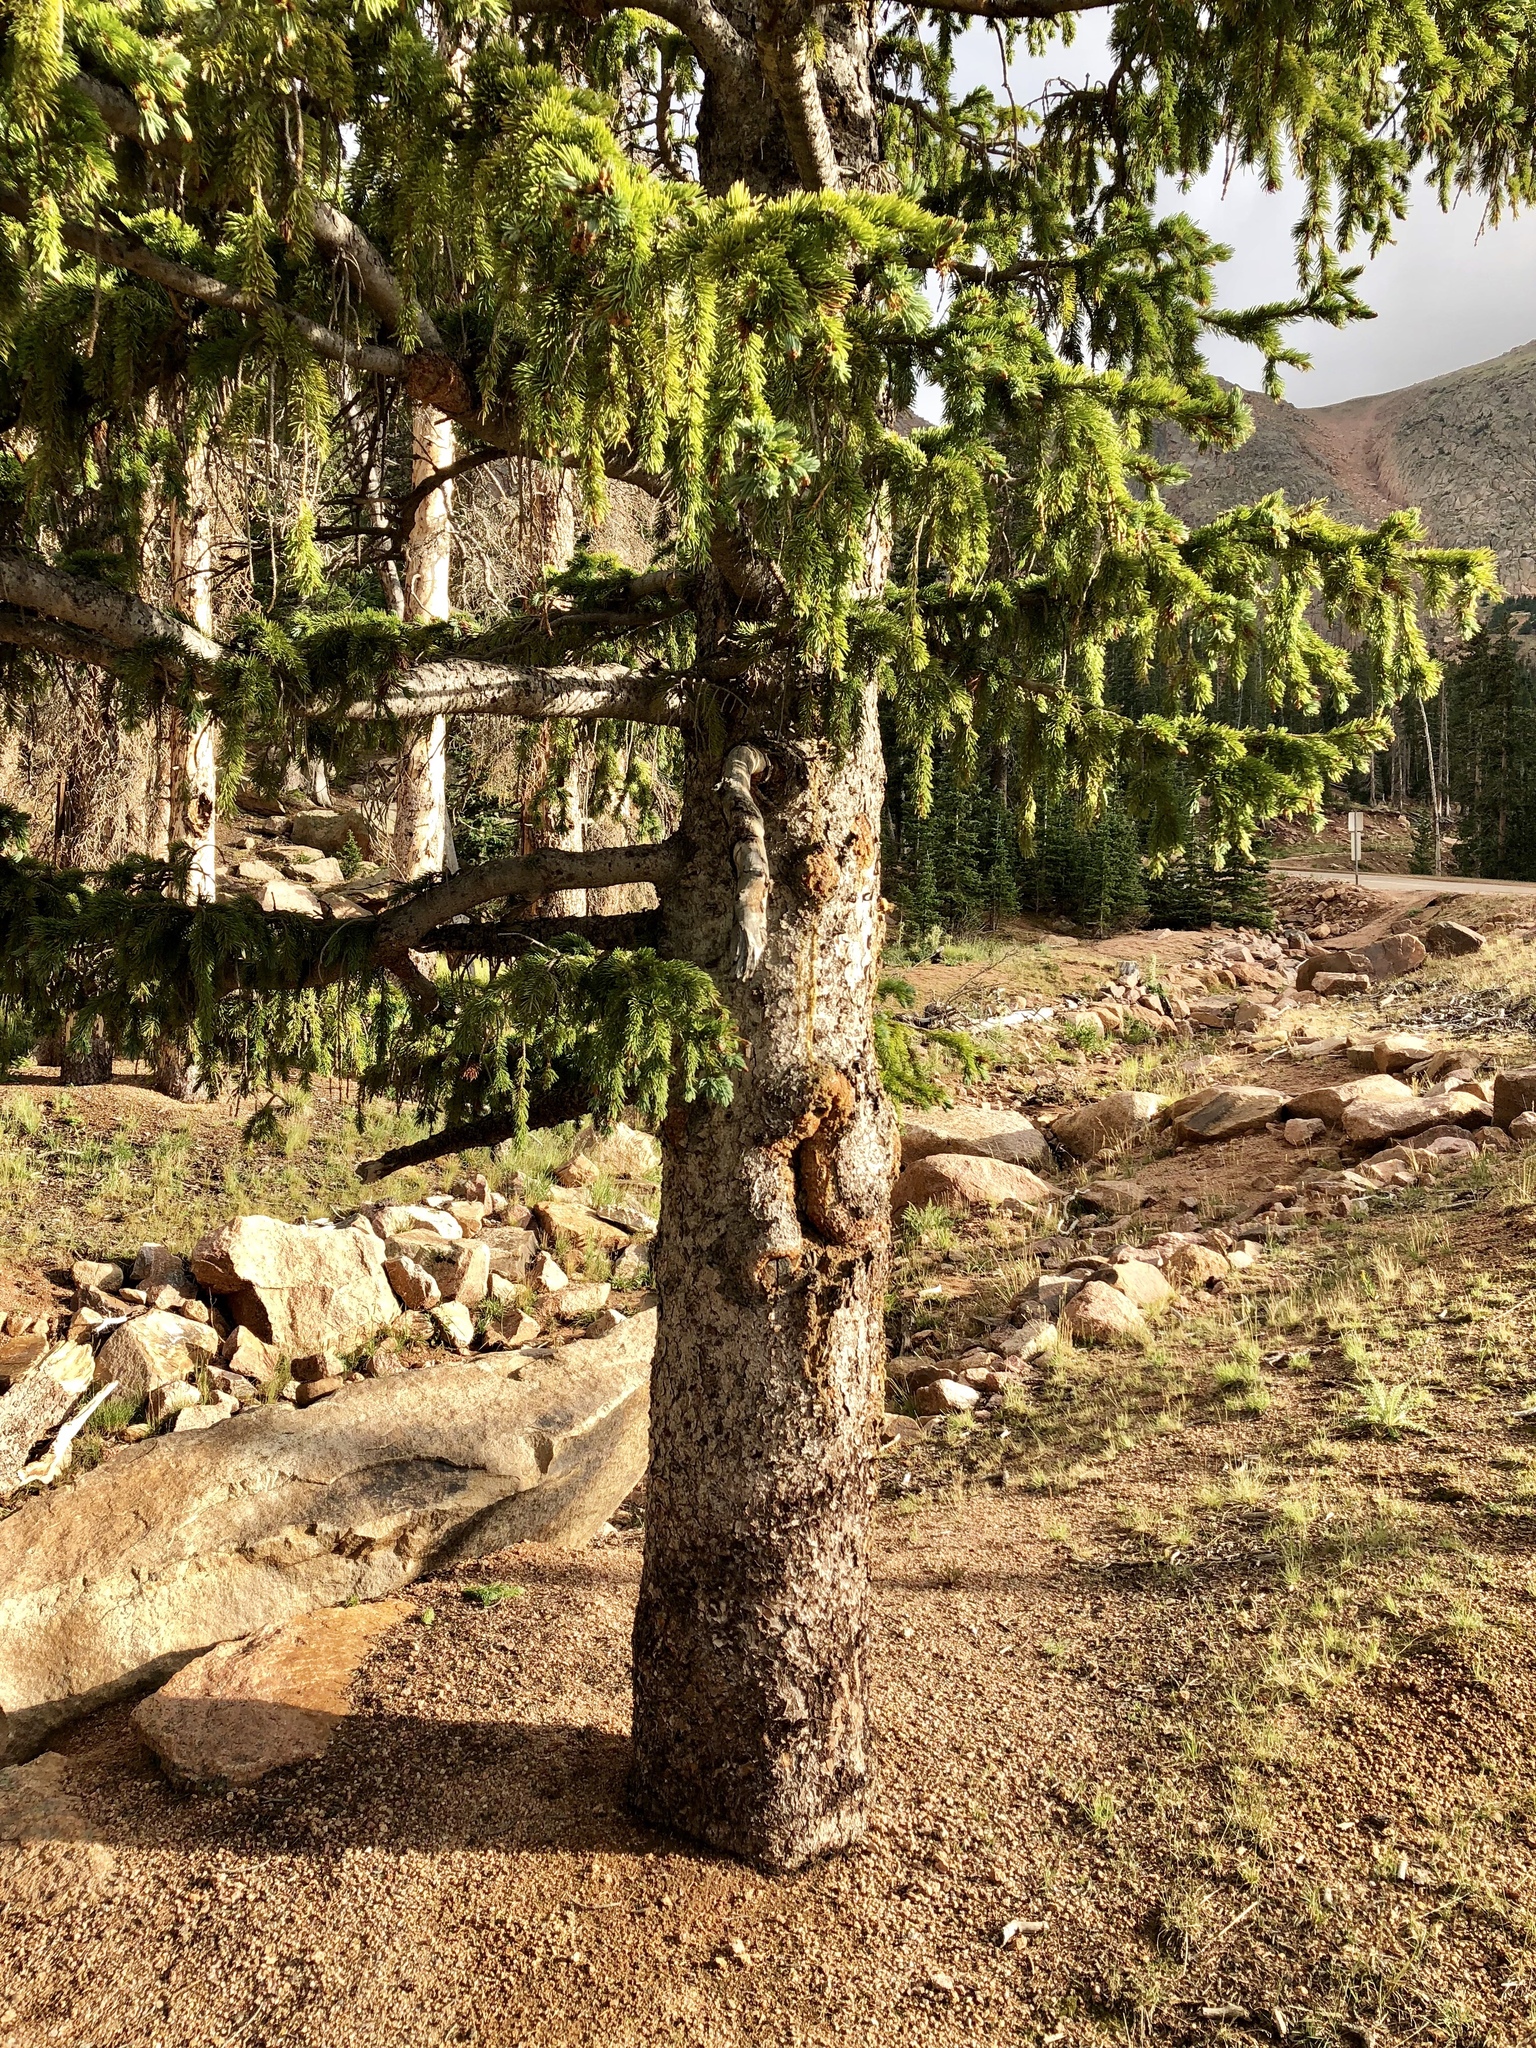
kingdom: Plantae
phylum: Tracheophyta
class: Pinopsida
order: Pinales
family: Pinaceae
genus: Picea
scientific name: Picea engelmannii
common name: Engelmann spruce
